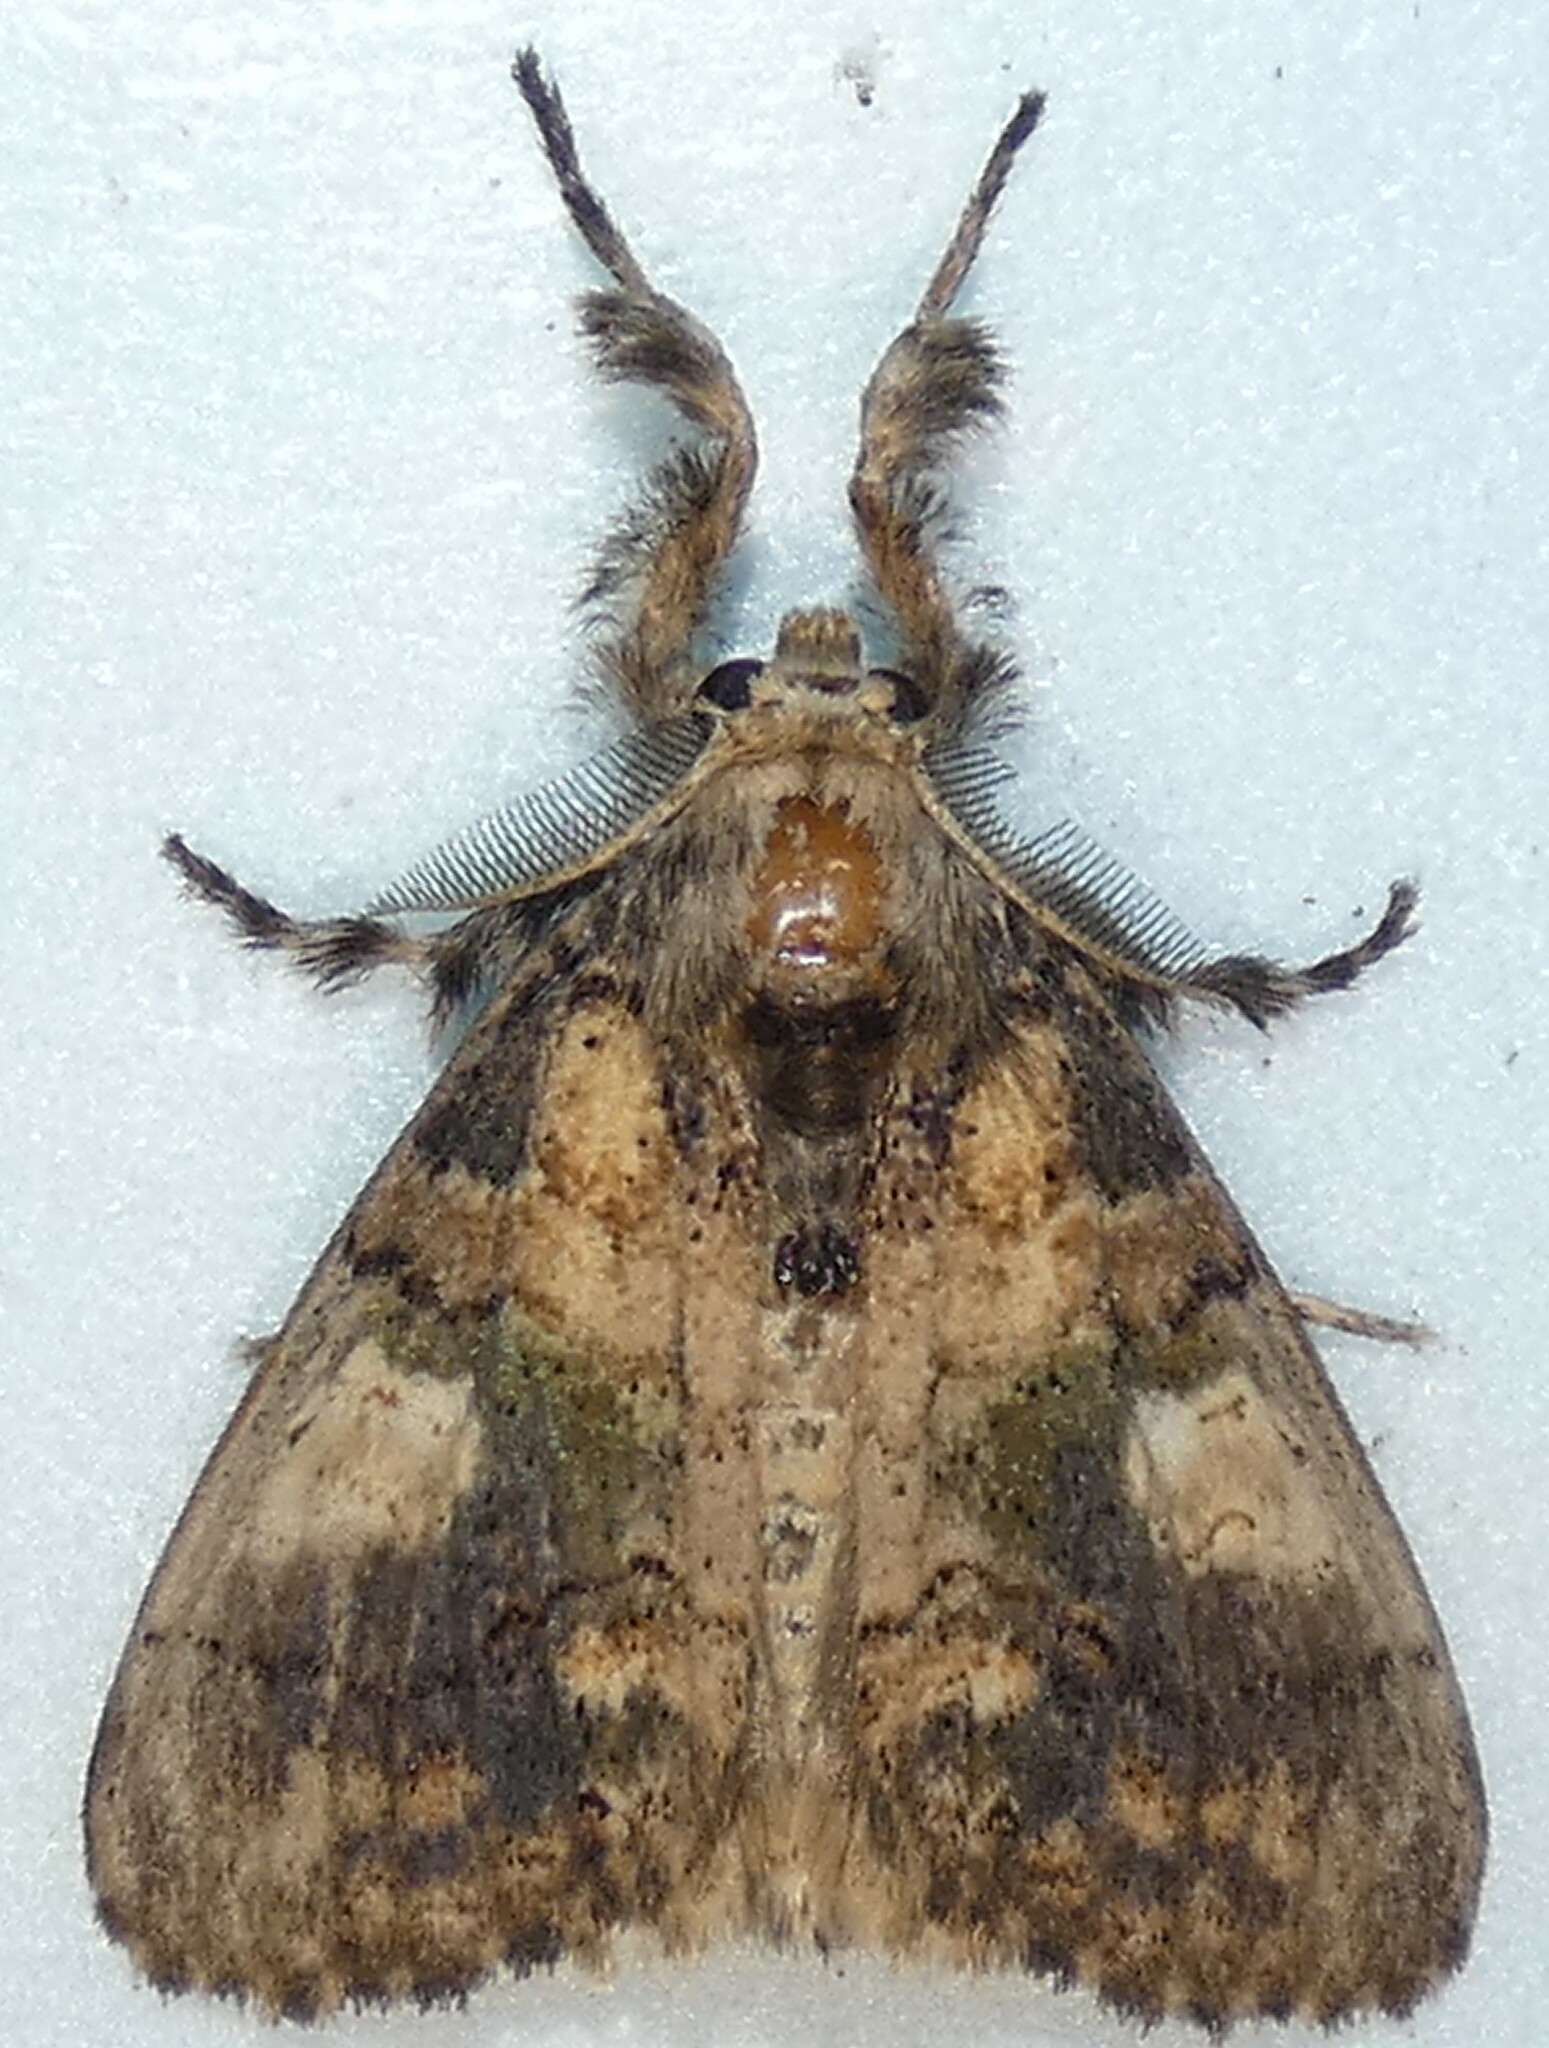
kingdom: Animalia
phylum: Arthropoda
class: Insecta
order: Lepidoptera
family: Erebidae
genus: Dasychira
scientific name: Dasychira meridionalis
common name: Southern tussock moth
